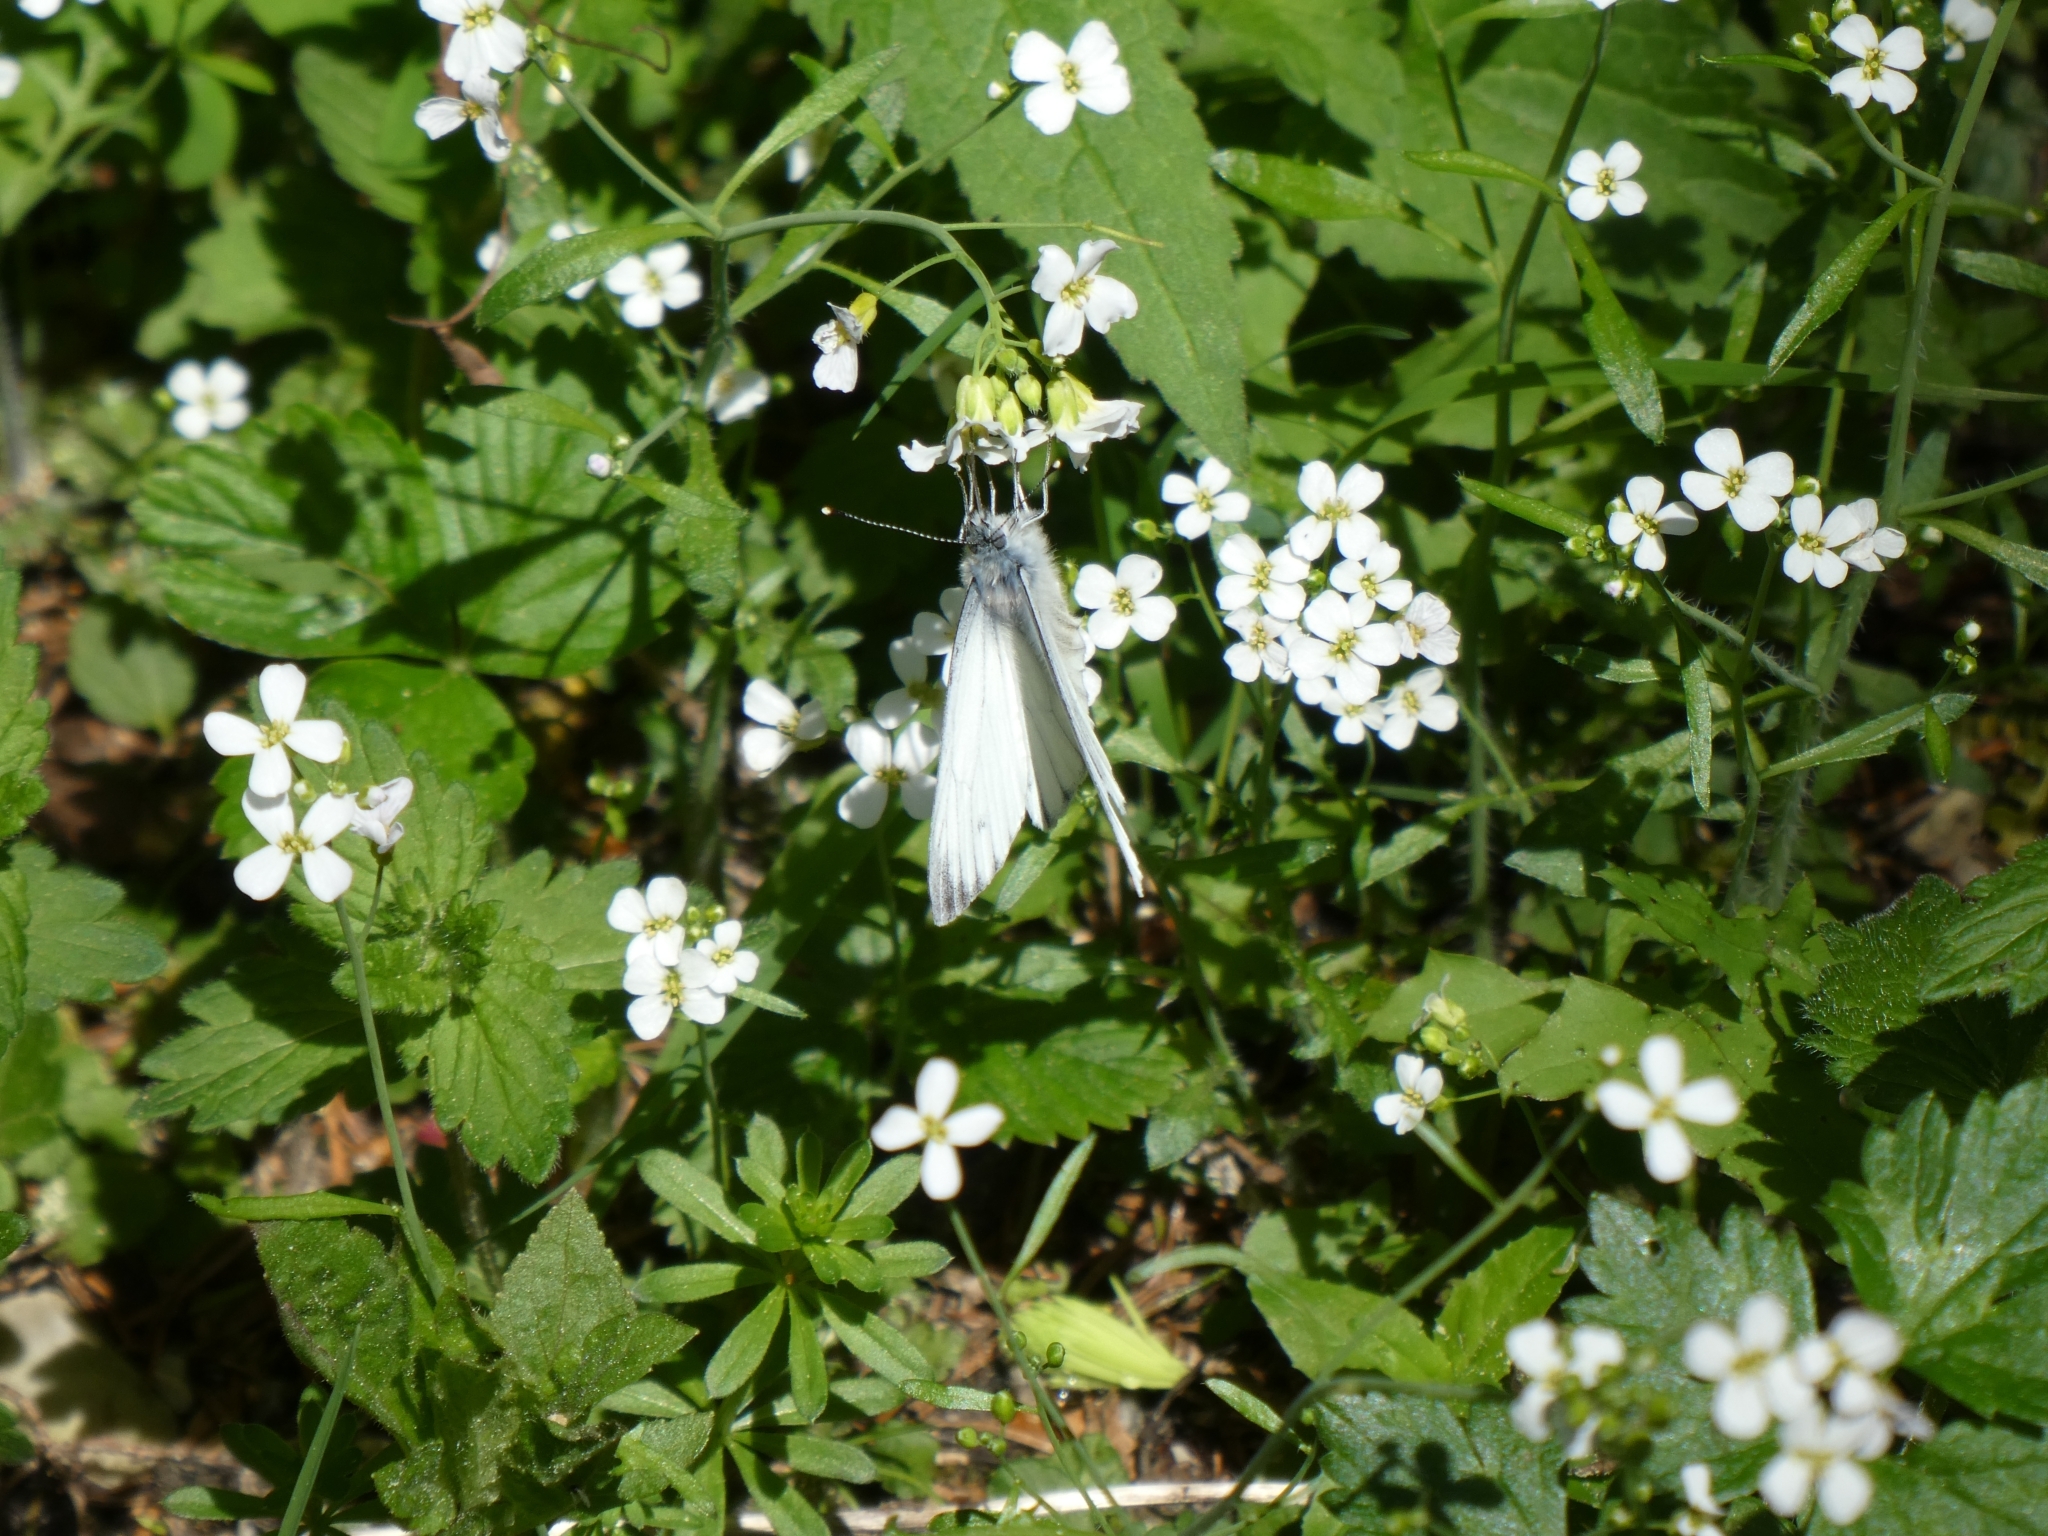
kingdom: Animalia
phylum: Arthropoda
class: Insecta
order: Lepidoptera
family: Pieridae
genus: Pieris
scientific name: Pieris napi
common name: Green-veined white
